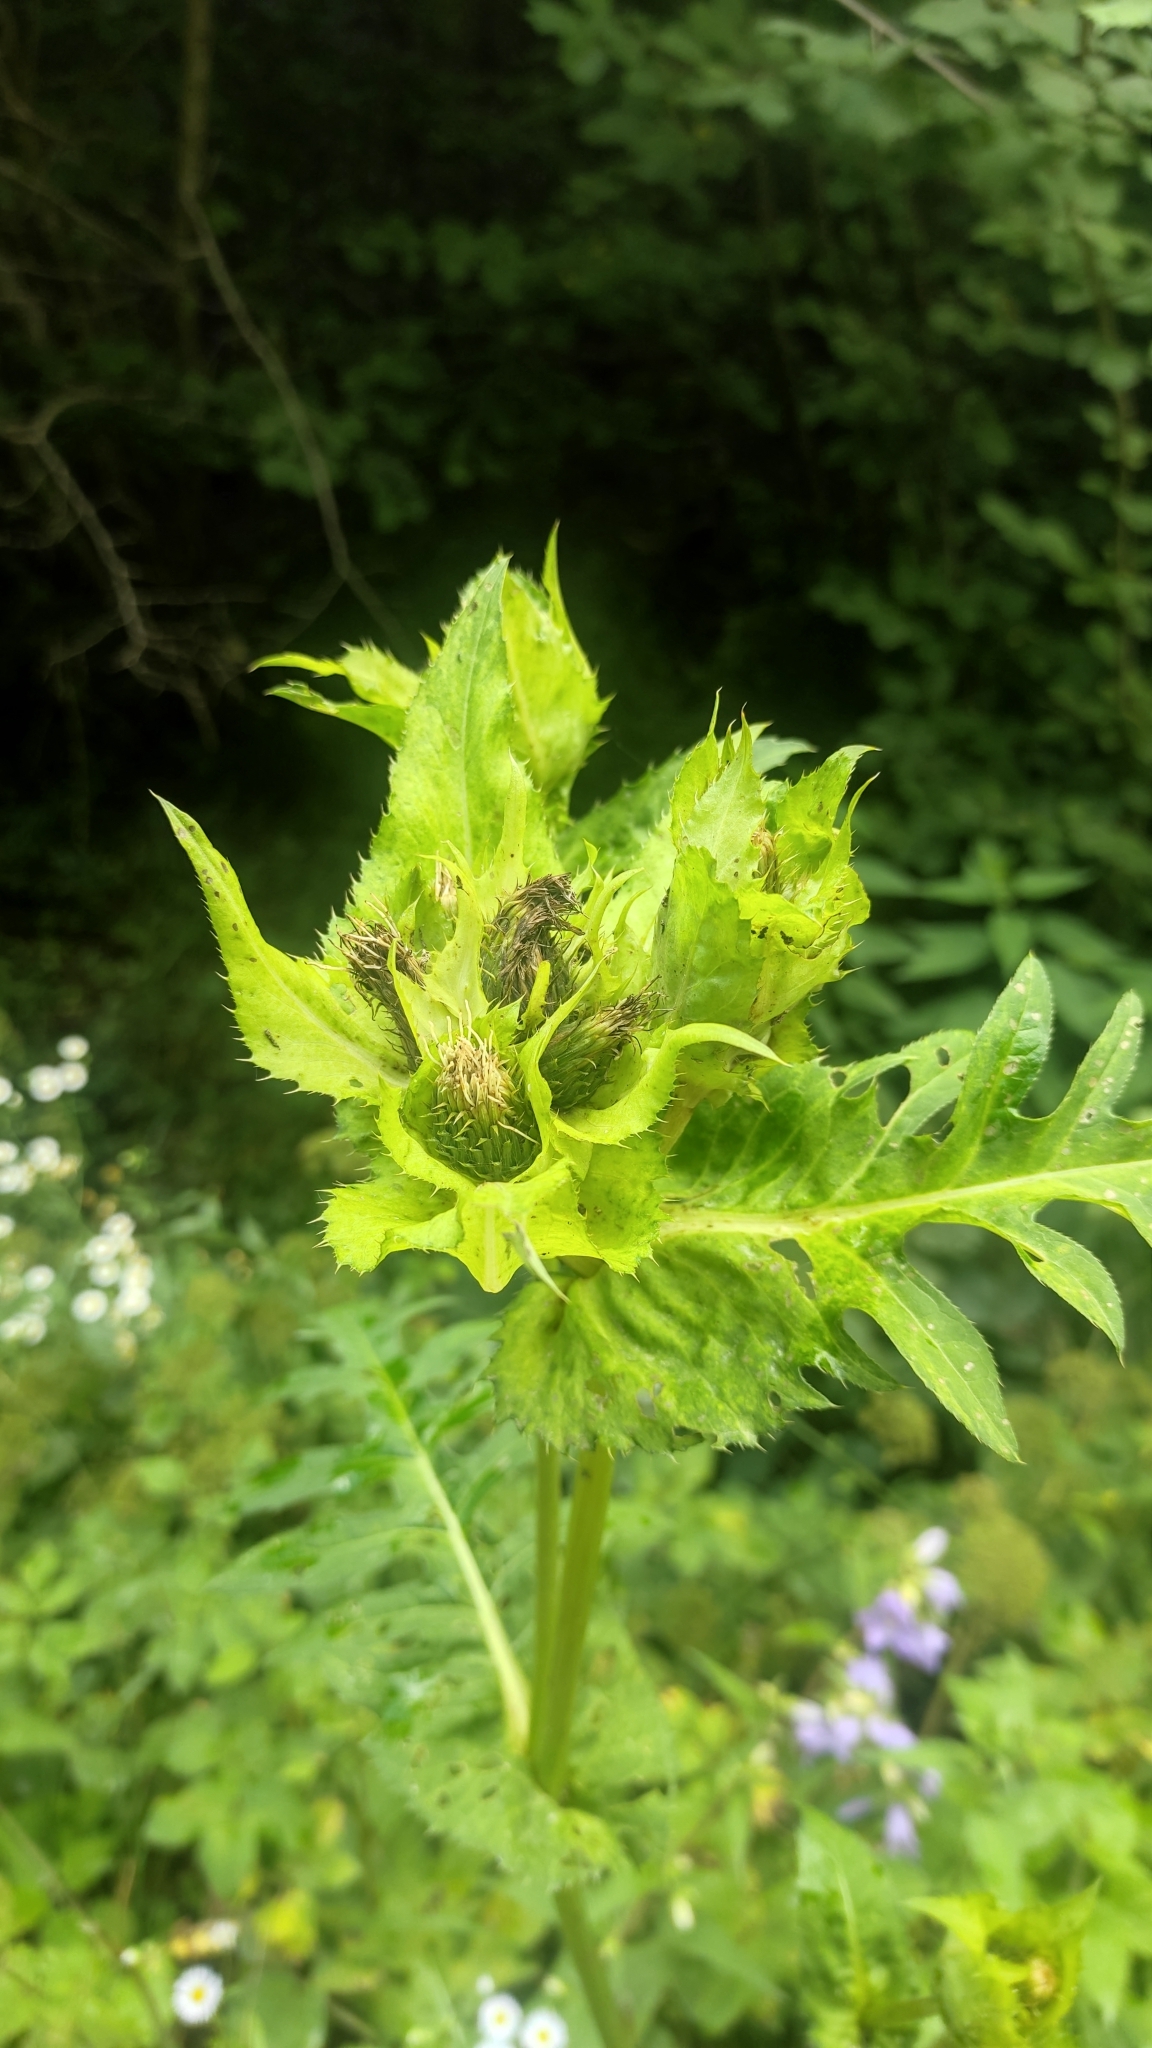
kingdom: Plantae
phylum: Tracheophyta
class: Magnoliopsida
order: Asterales
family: Asteraceae
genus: Cirsium
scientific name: Cirsium oleraceum
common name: Cabbage thistle
